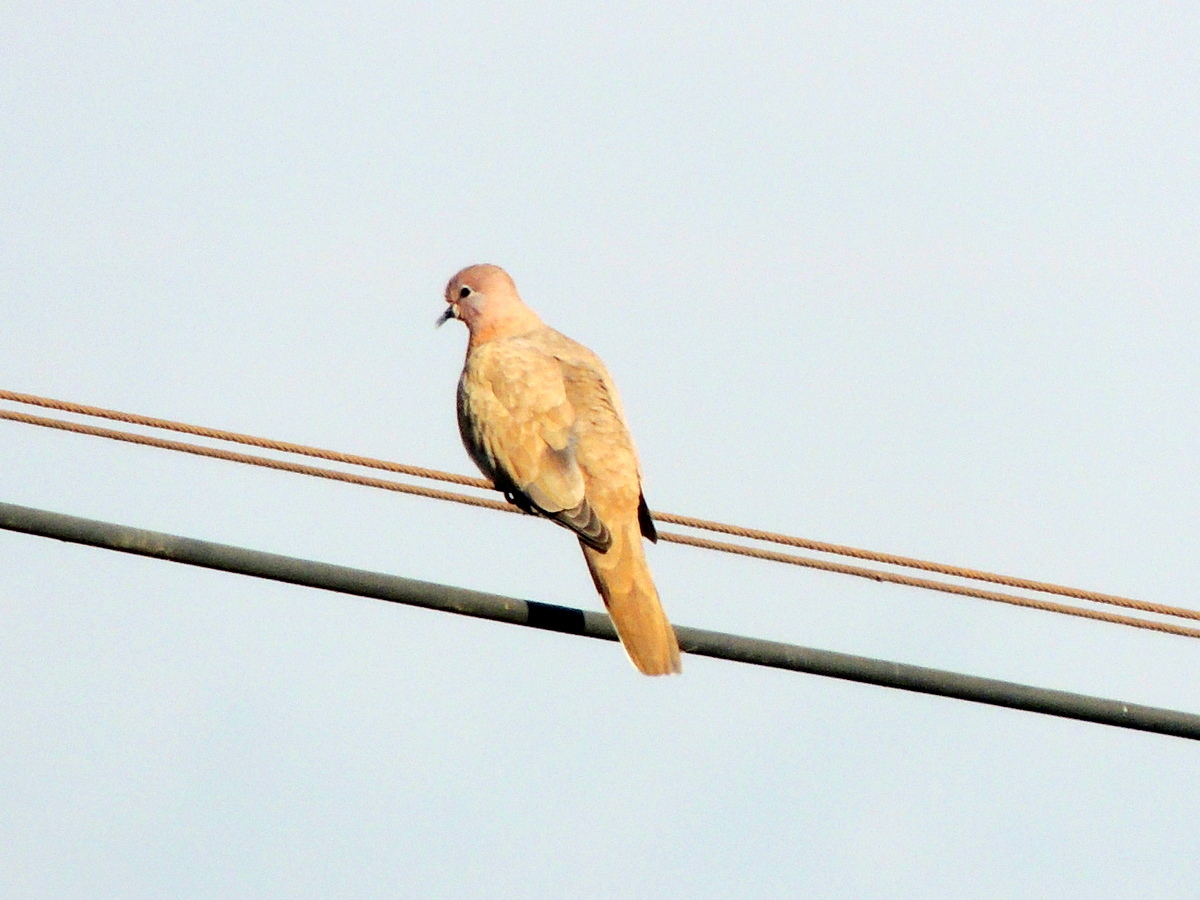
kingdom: Animalia
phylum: Chordata
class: Aves
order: Columbiformes
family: Columbidae
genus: Spilopelia
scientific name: Spilopelia senegalensis
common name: Laughing dove
